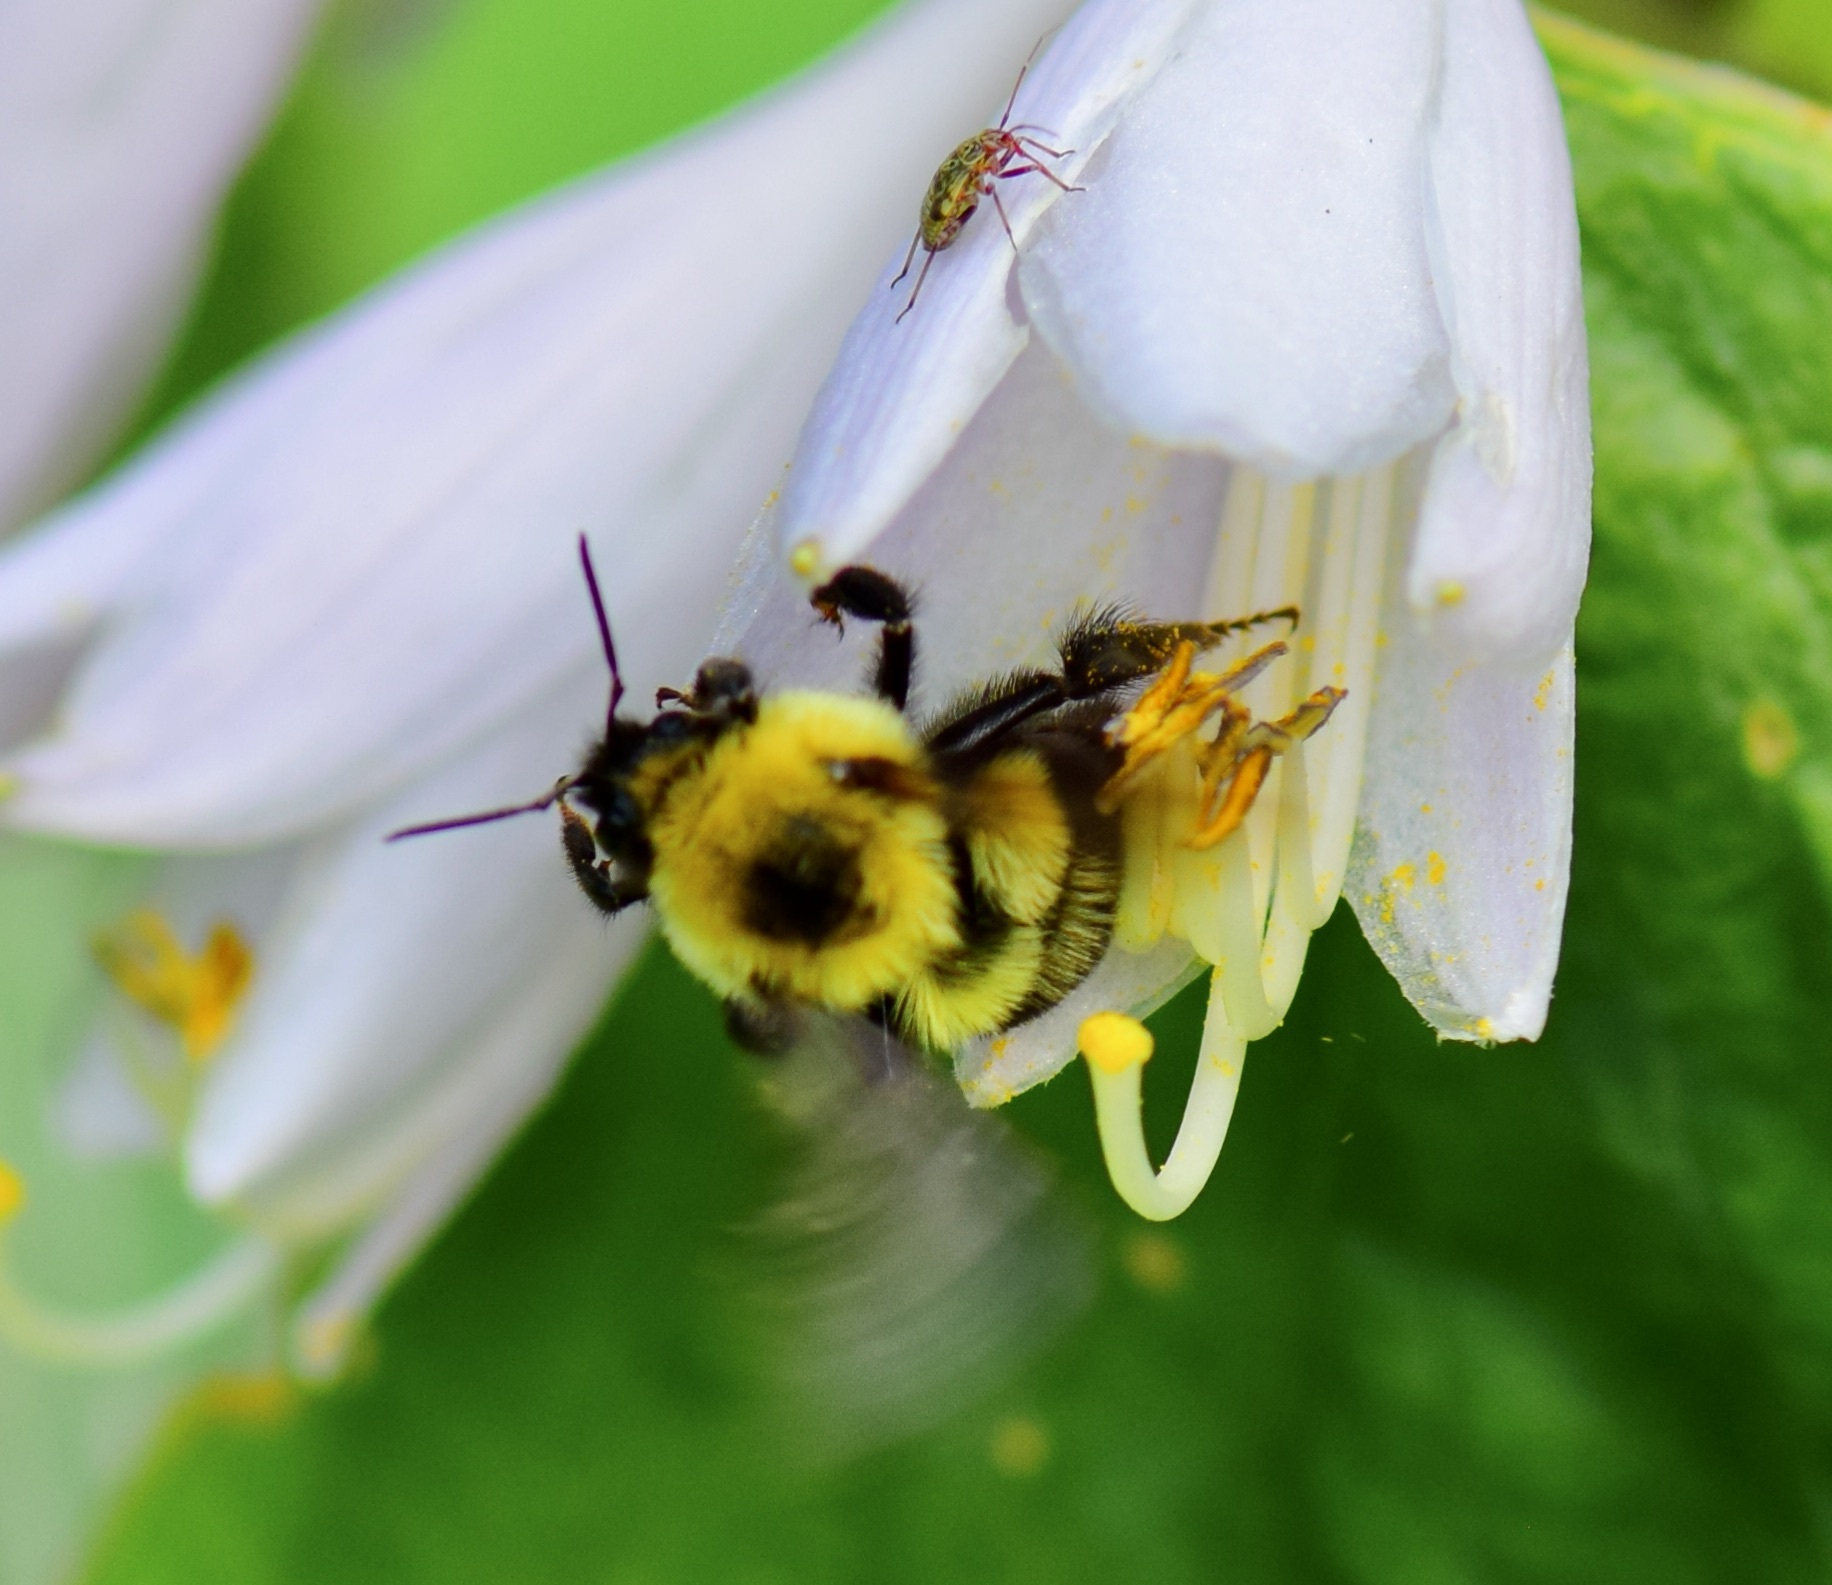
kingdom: Animalia
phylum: Arthropoda
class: Insecta
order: Hymenoptera
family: Apidae
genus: Bombus
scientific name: Bombus bimaculatus
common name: Two-spotted bumble bee
